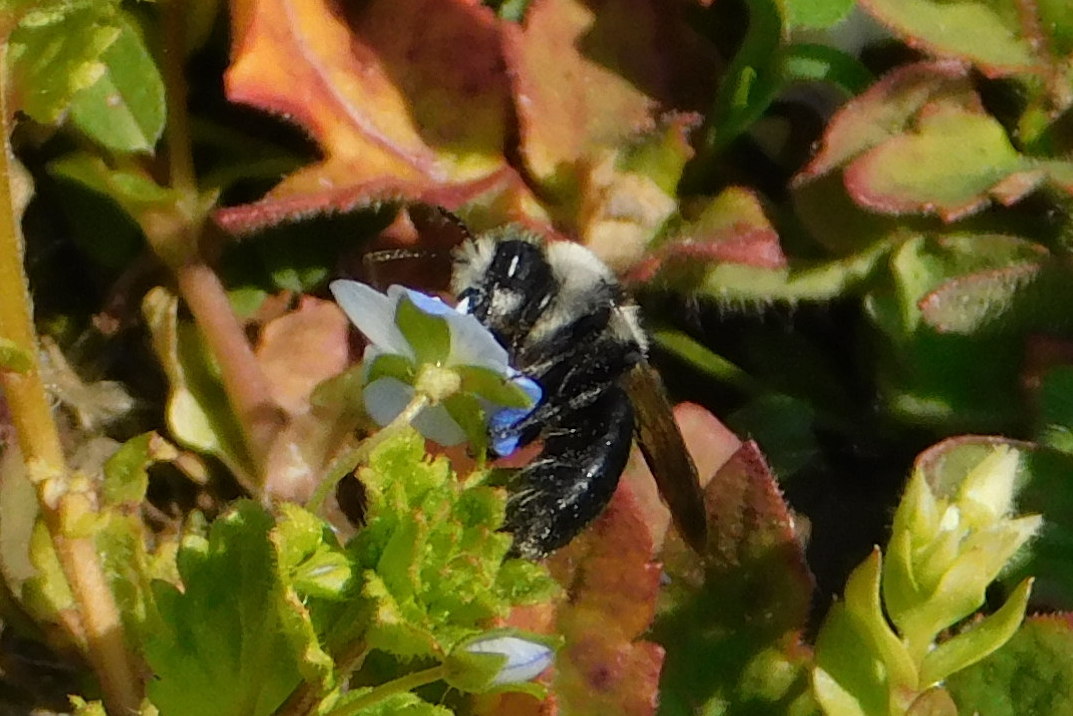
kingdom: Animalia
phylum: Arthropoda
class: Insecta
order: Hymenoptera
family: Andrenidae
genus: Andrena
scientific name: Andrena cineraria
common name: Ashy mining bee
